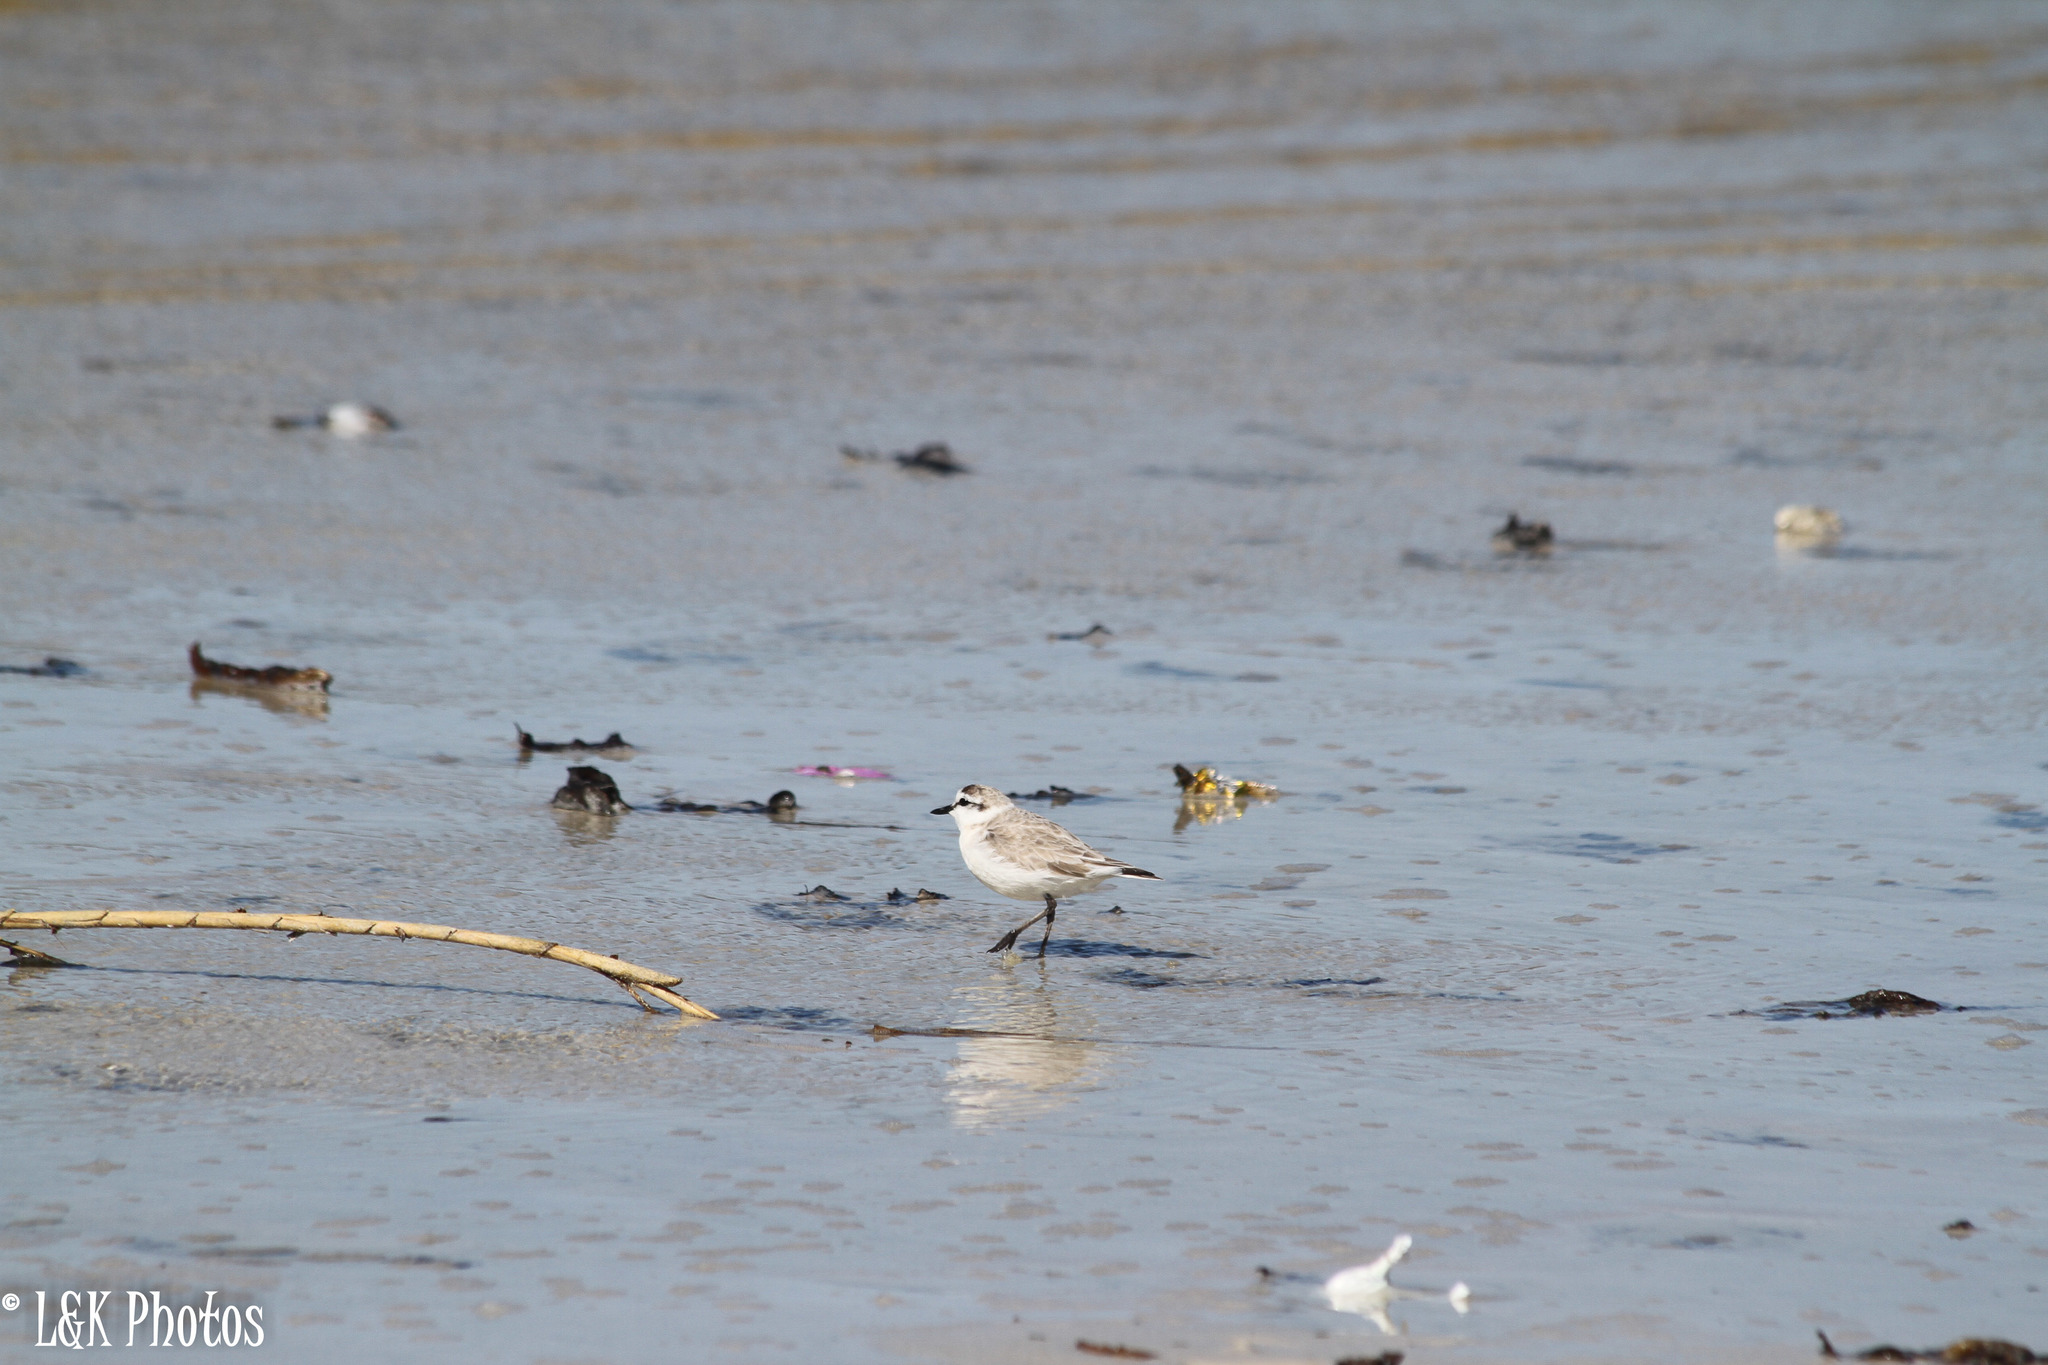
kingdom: Animalia
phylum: Chordata
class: Aves
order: Charadriiformes
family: Charadriidae
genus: Anarhynchus
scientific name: Anarhynchus
